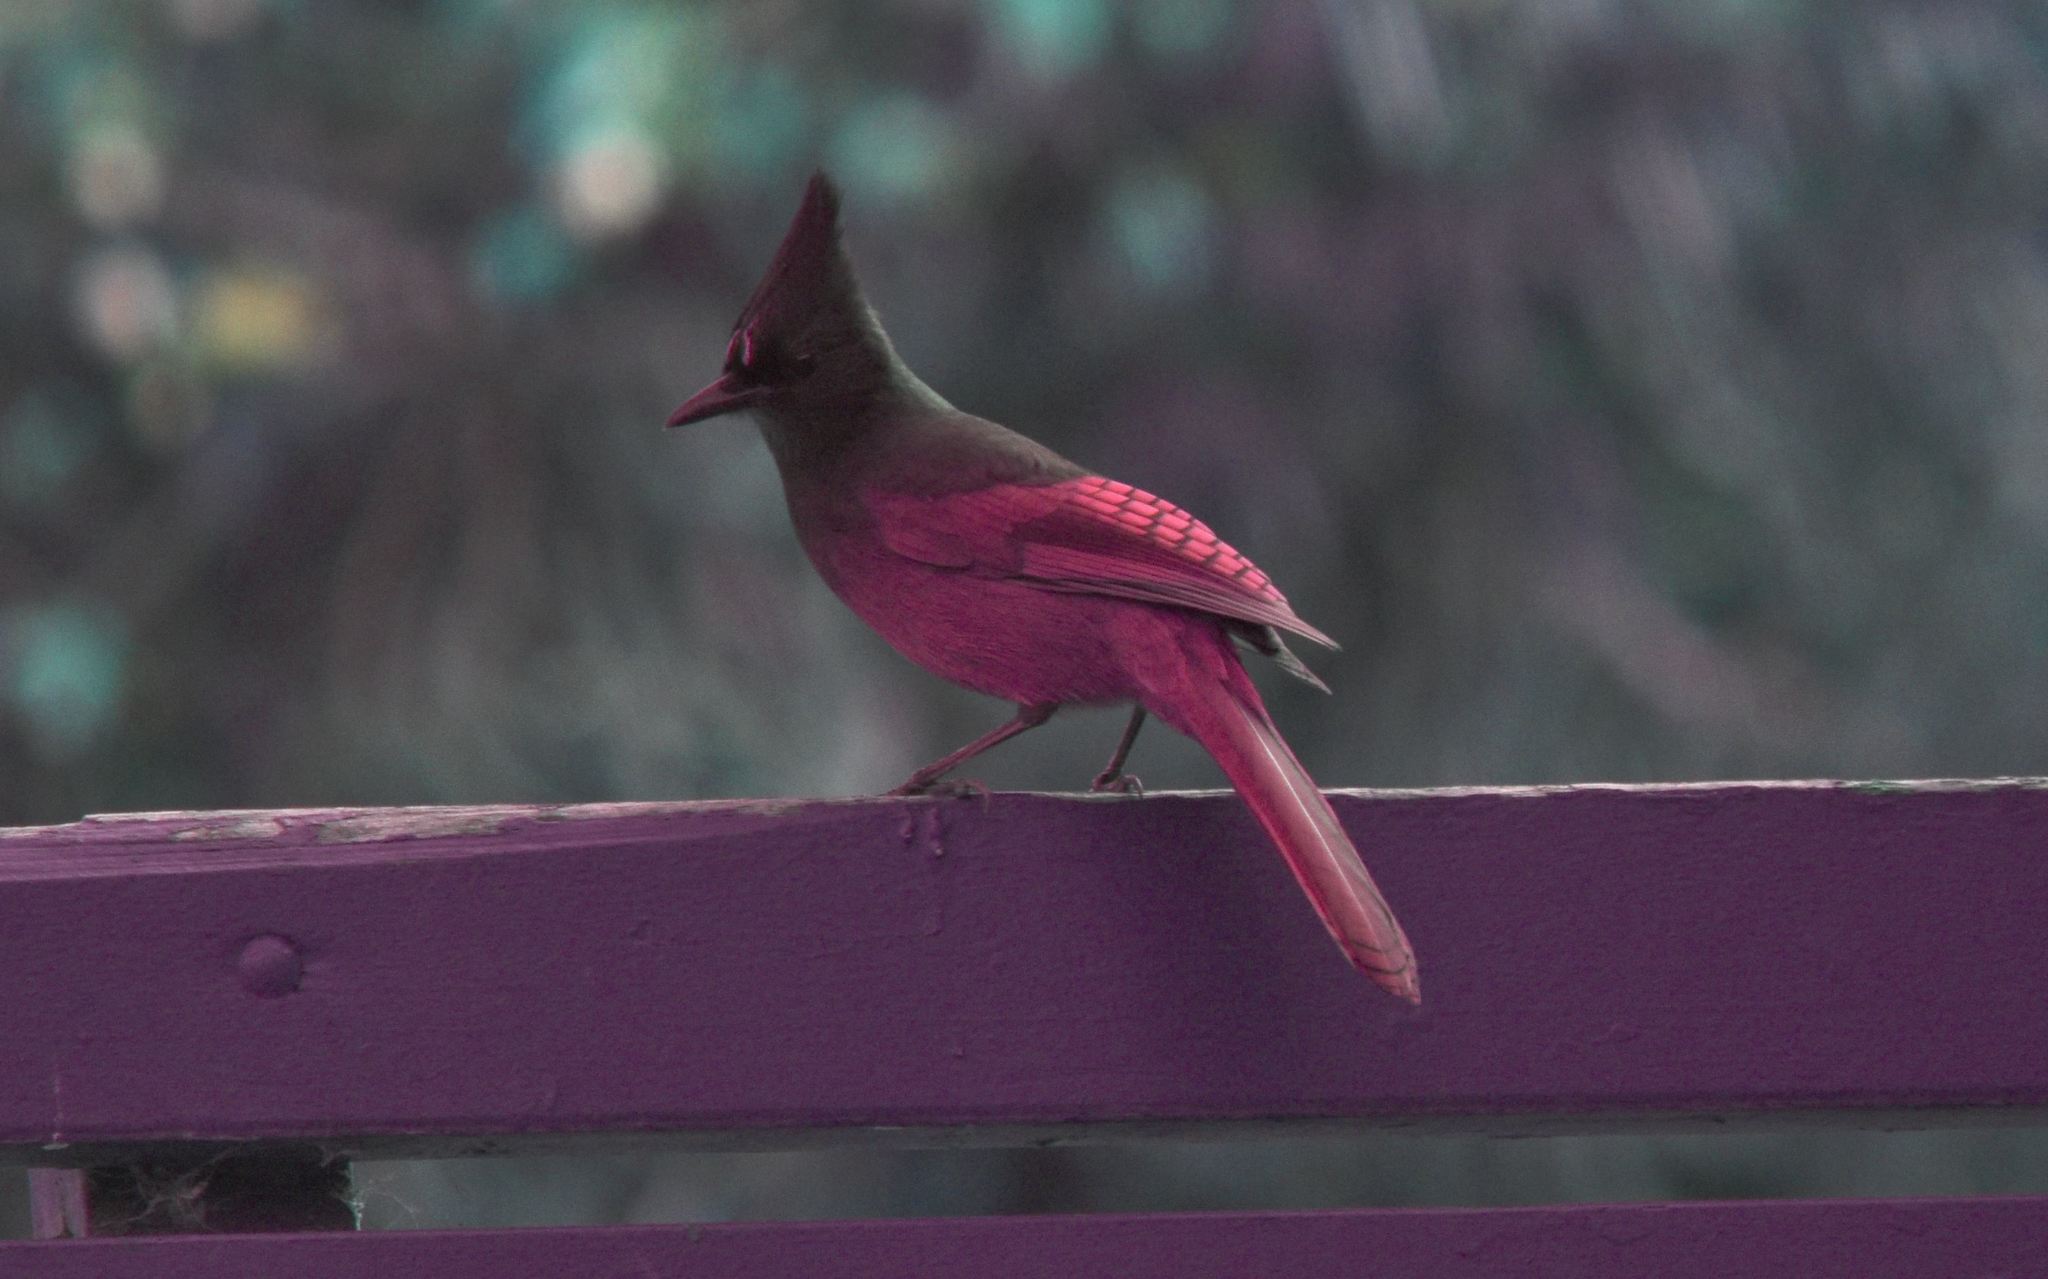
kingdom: Animalia
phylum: Chordata
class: Aves
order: Passeriformes
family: Corvidae
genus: Cyanocitta
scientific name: Cyanocitta stelleri
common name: Steller's jay
